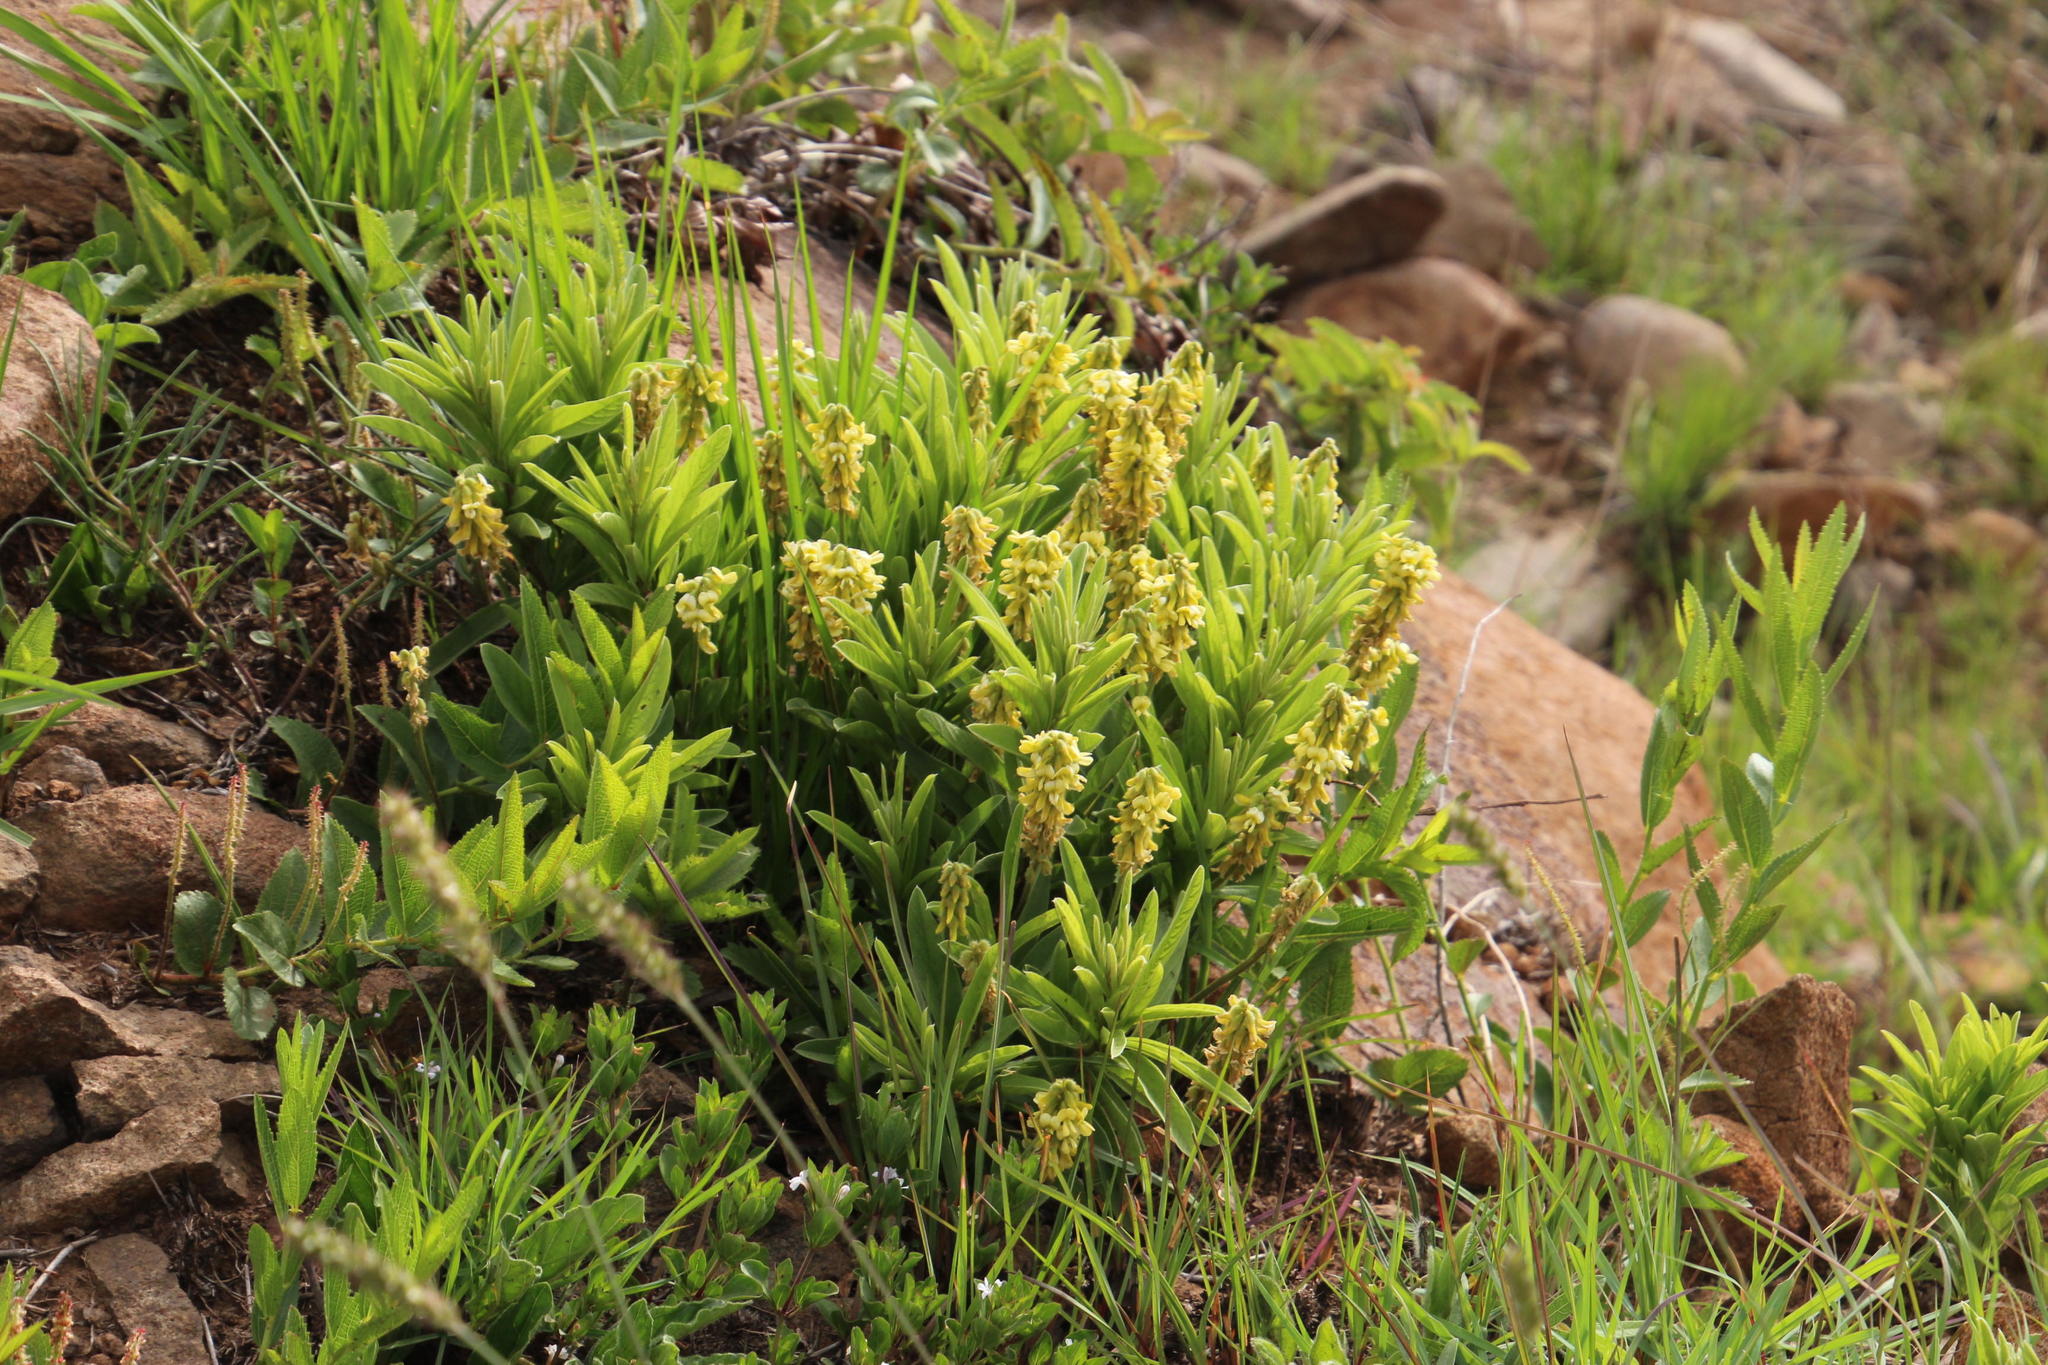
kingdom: Plantae
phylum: Tracheophyta
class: Magnoliopsida
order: Fabales
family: Fabaceae
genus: Eriosema
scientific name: Eriosema kraussianum
